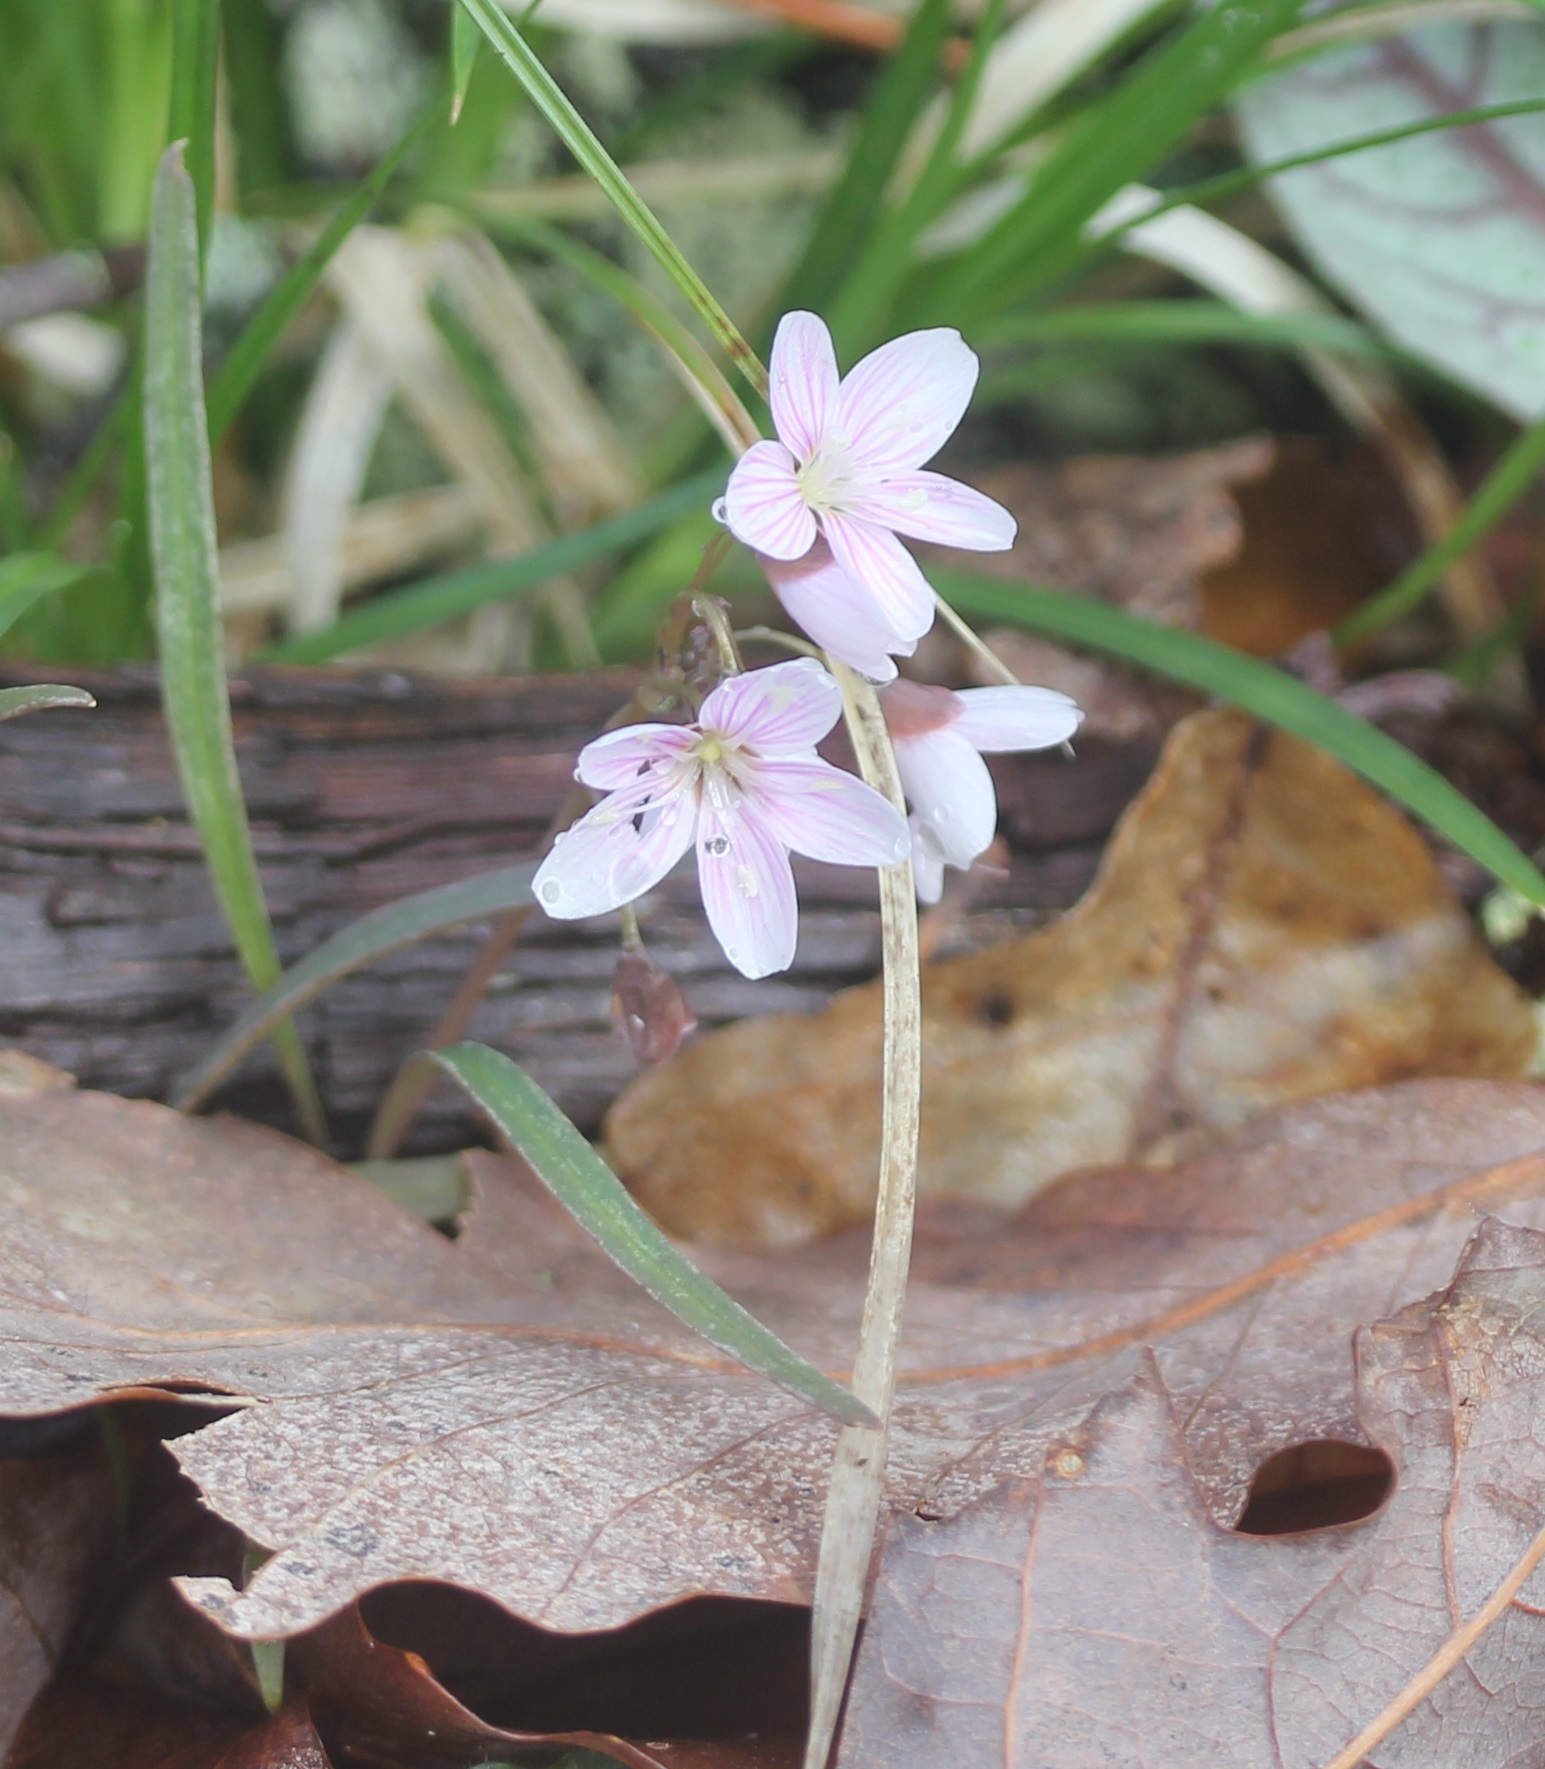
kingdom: Plantae
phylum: Tracheophyta
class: Magnoliopsida
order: Caryophyllales
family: Montiaceae
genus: Claytonia
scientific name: Claytonia virginica
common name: Virginia springbeauty
